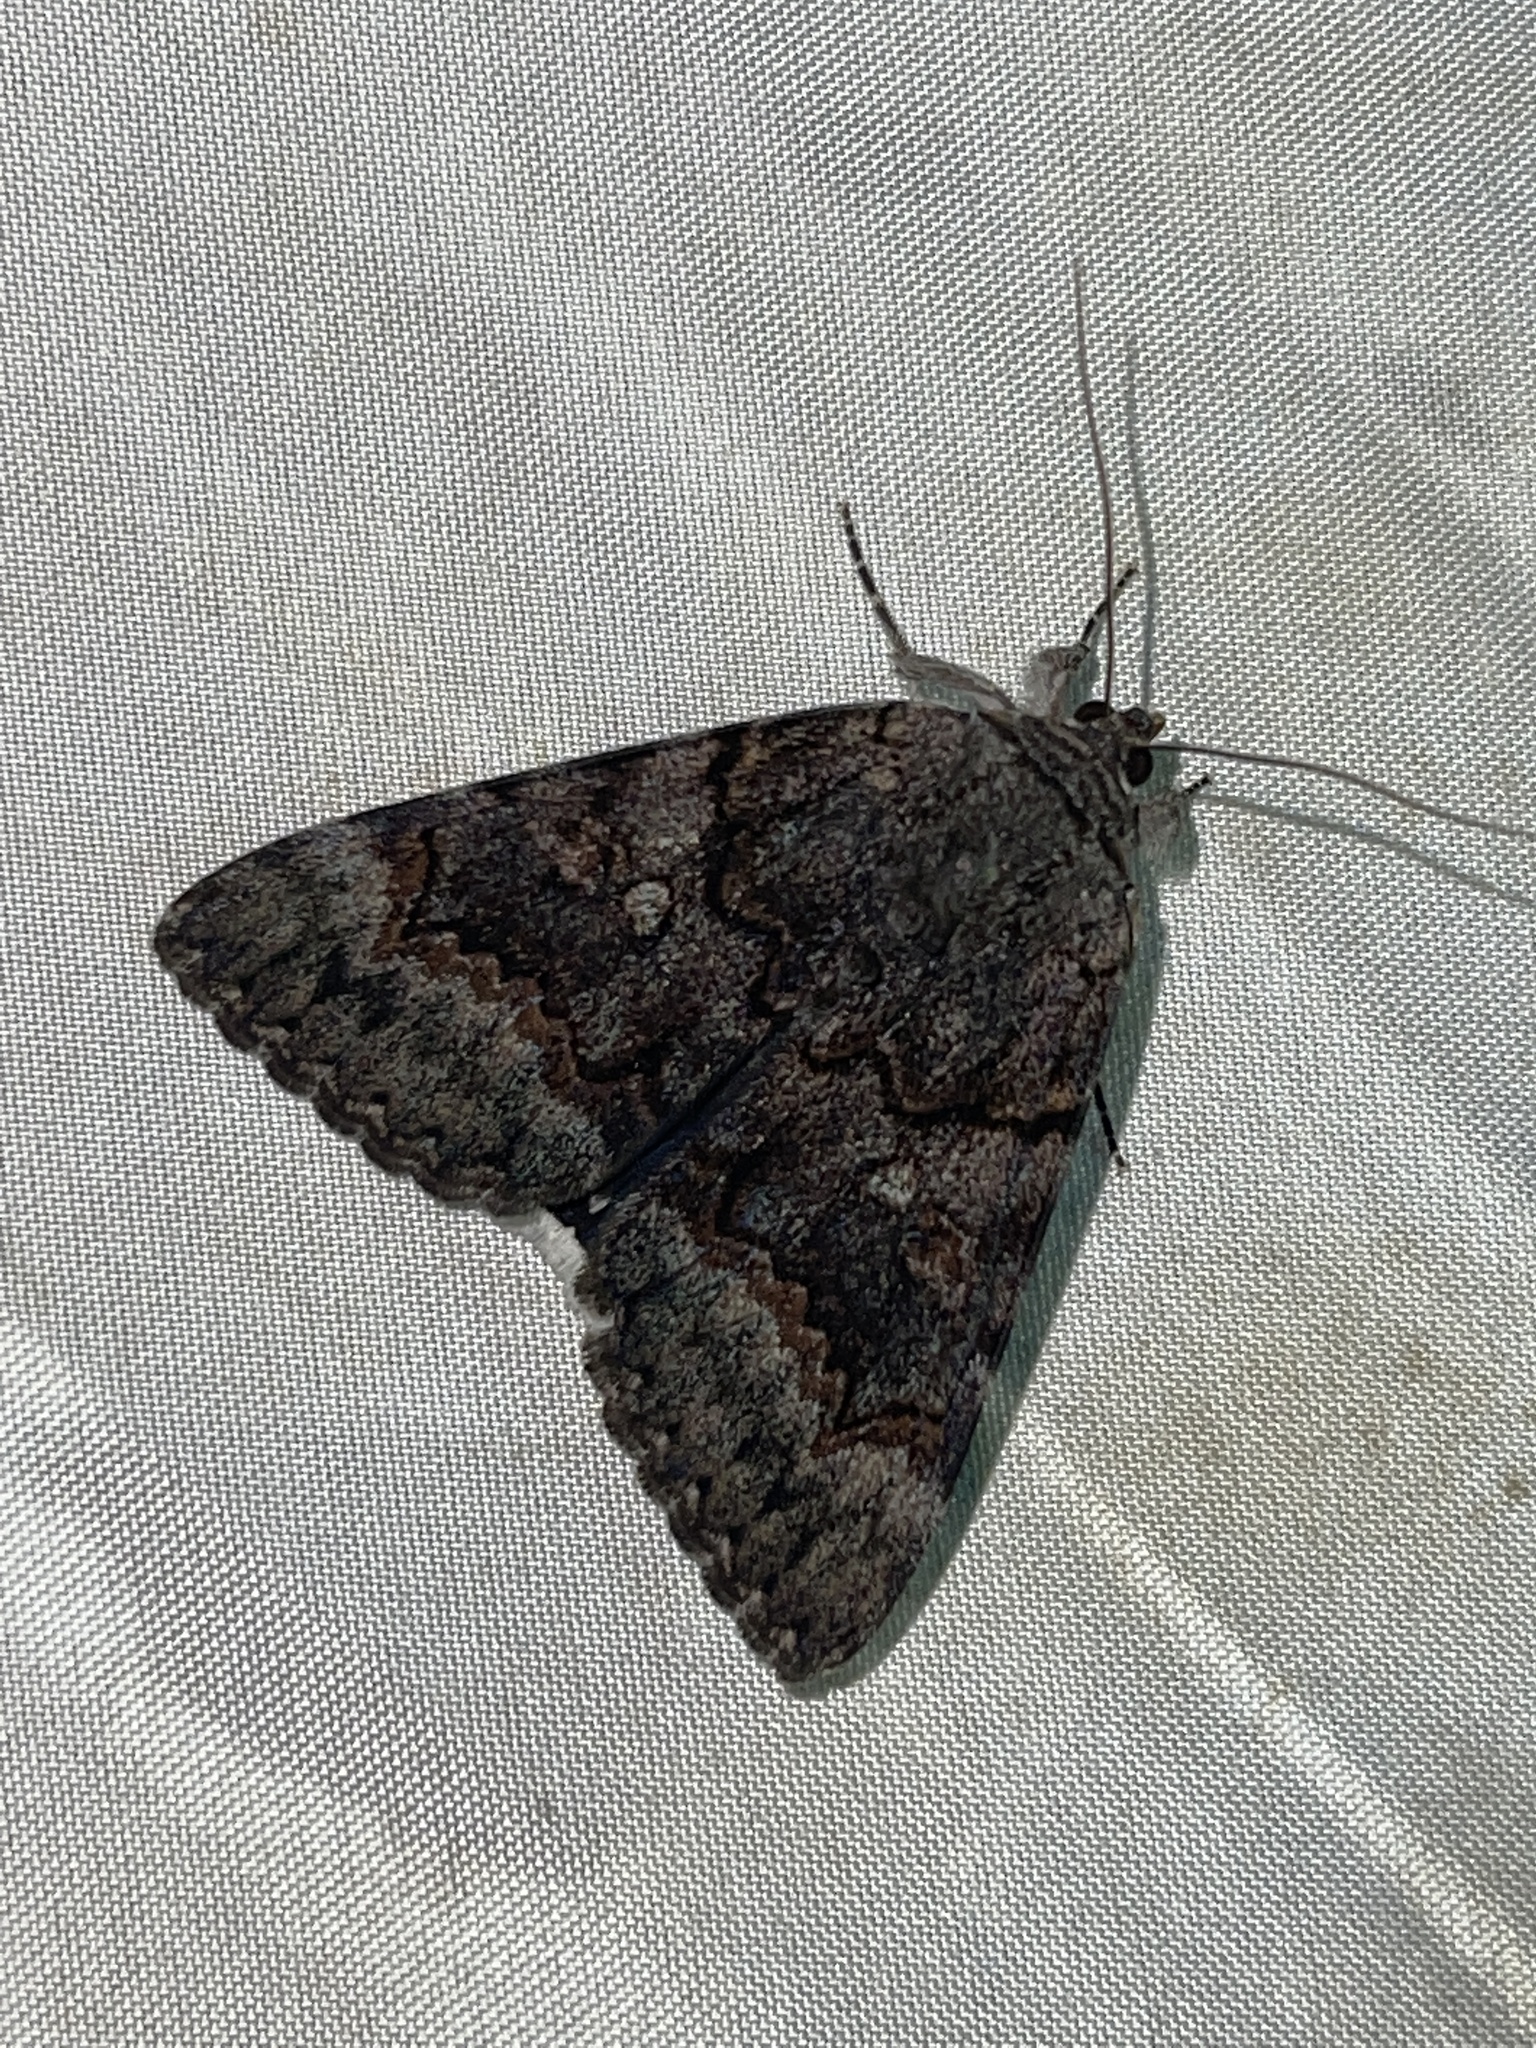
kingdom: Animalia
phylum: Arthropoda
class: Insecta
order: Lepidoptera
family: Erebidae
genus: Catocala
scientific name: Catocala epione
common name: Epione underwing
